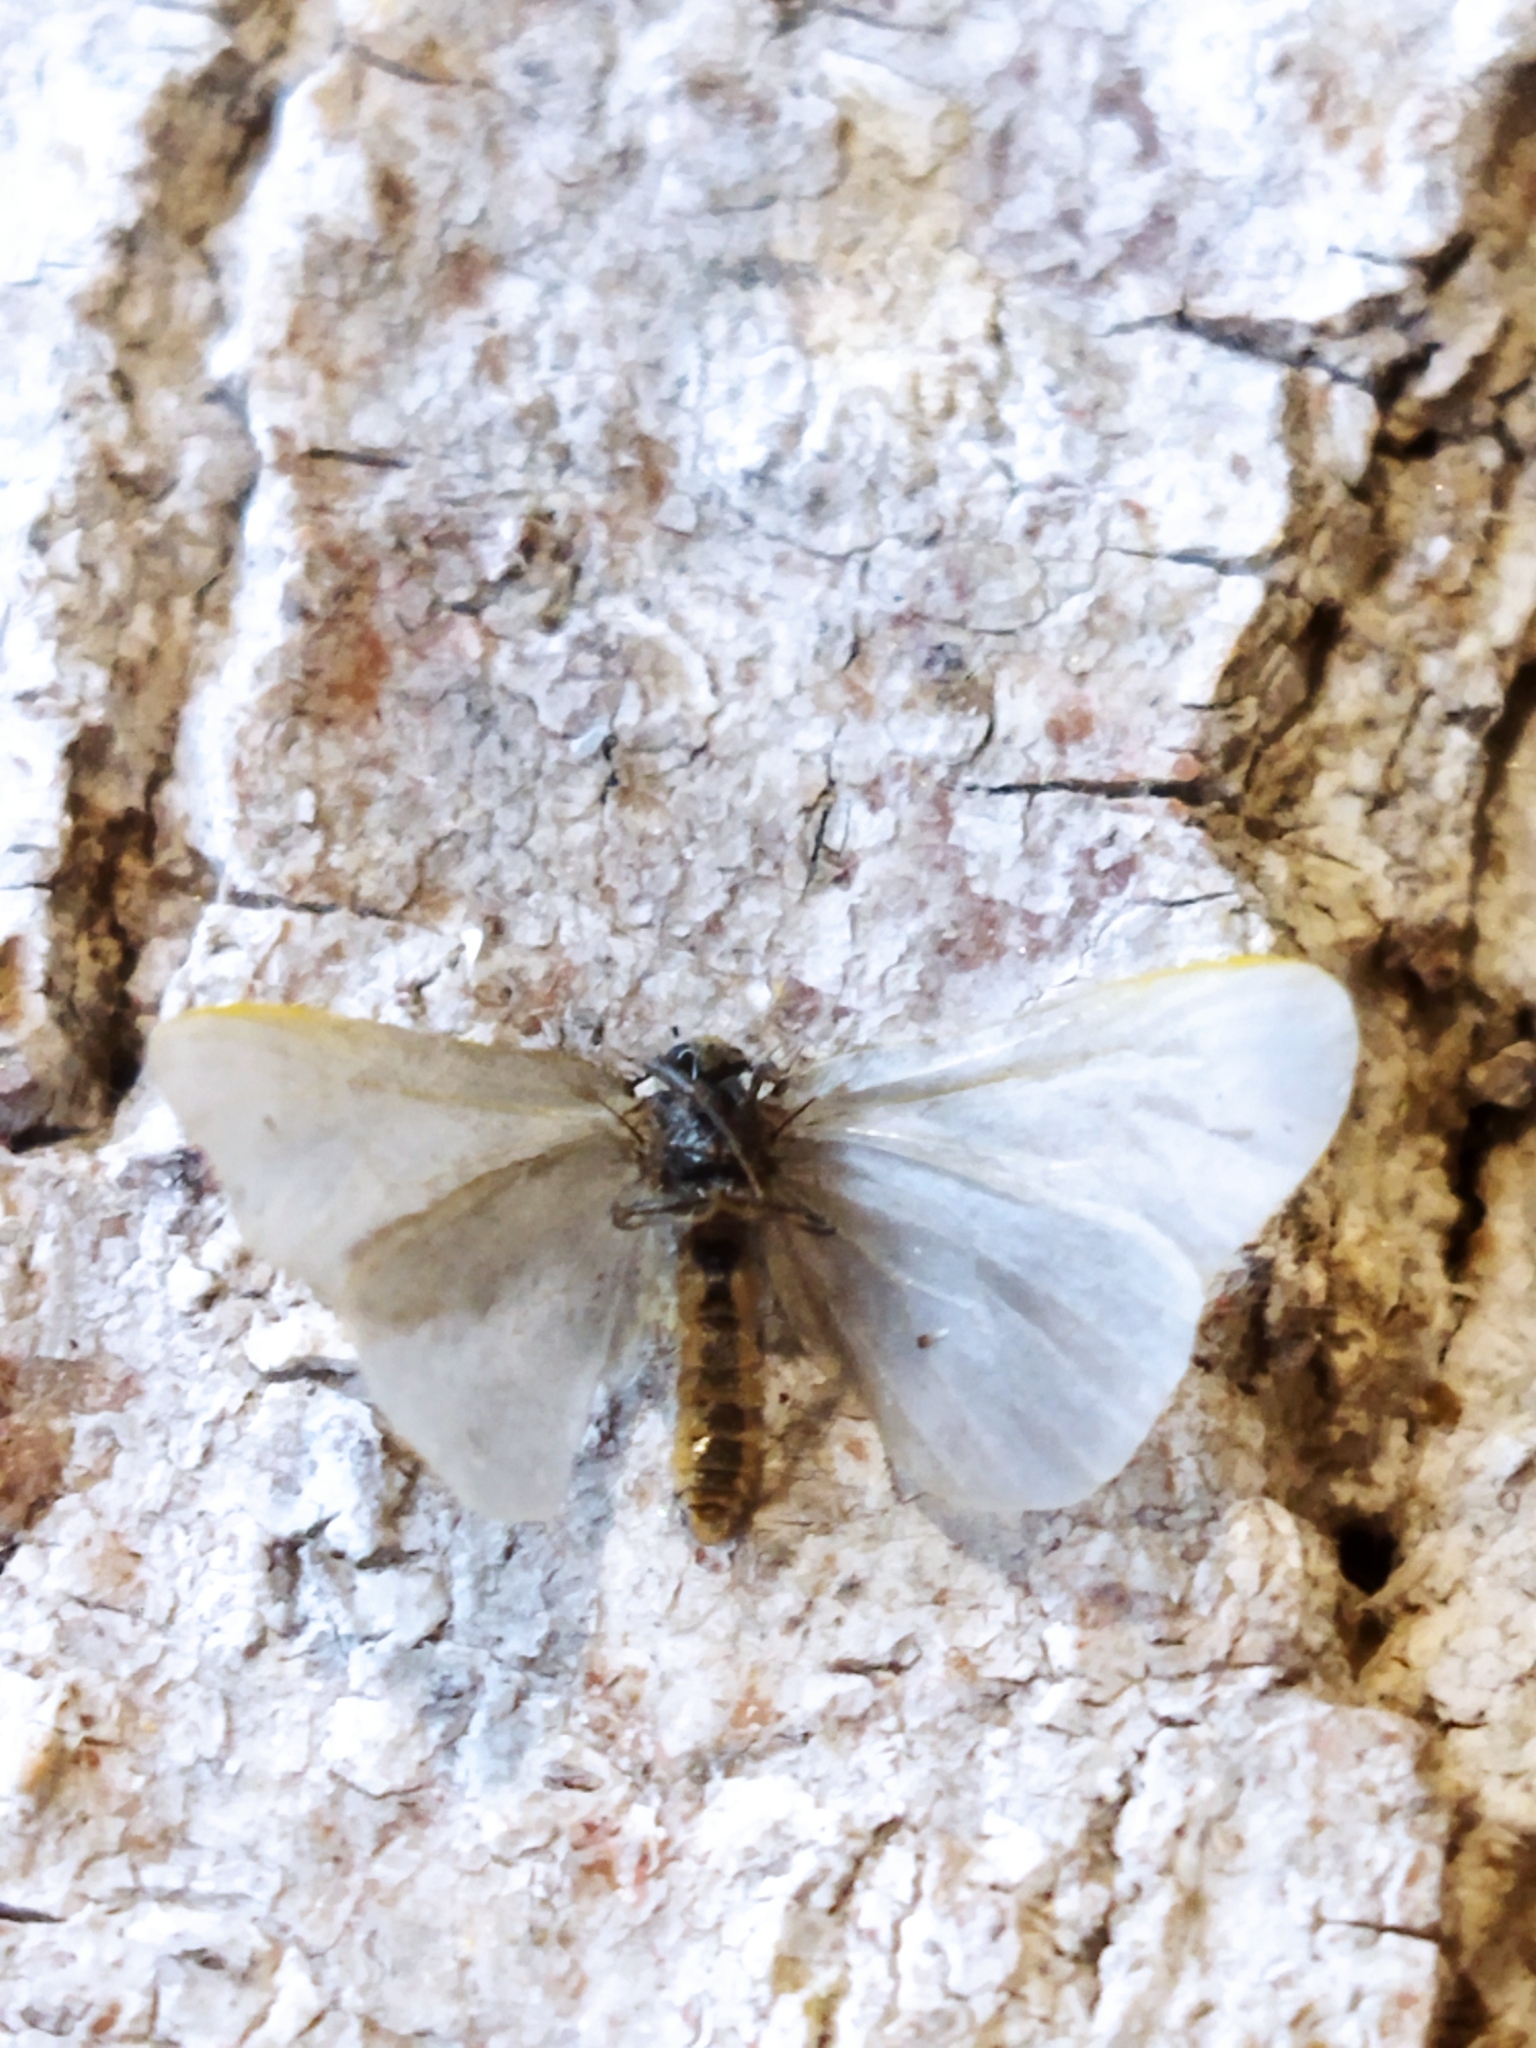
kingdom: Animalia
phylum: Arthropoda
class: Insecta
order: Lepidoptera
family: Psychidae
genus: Rebelia
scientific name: Rebelia perlucidella
